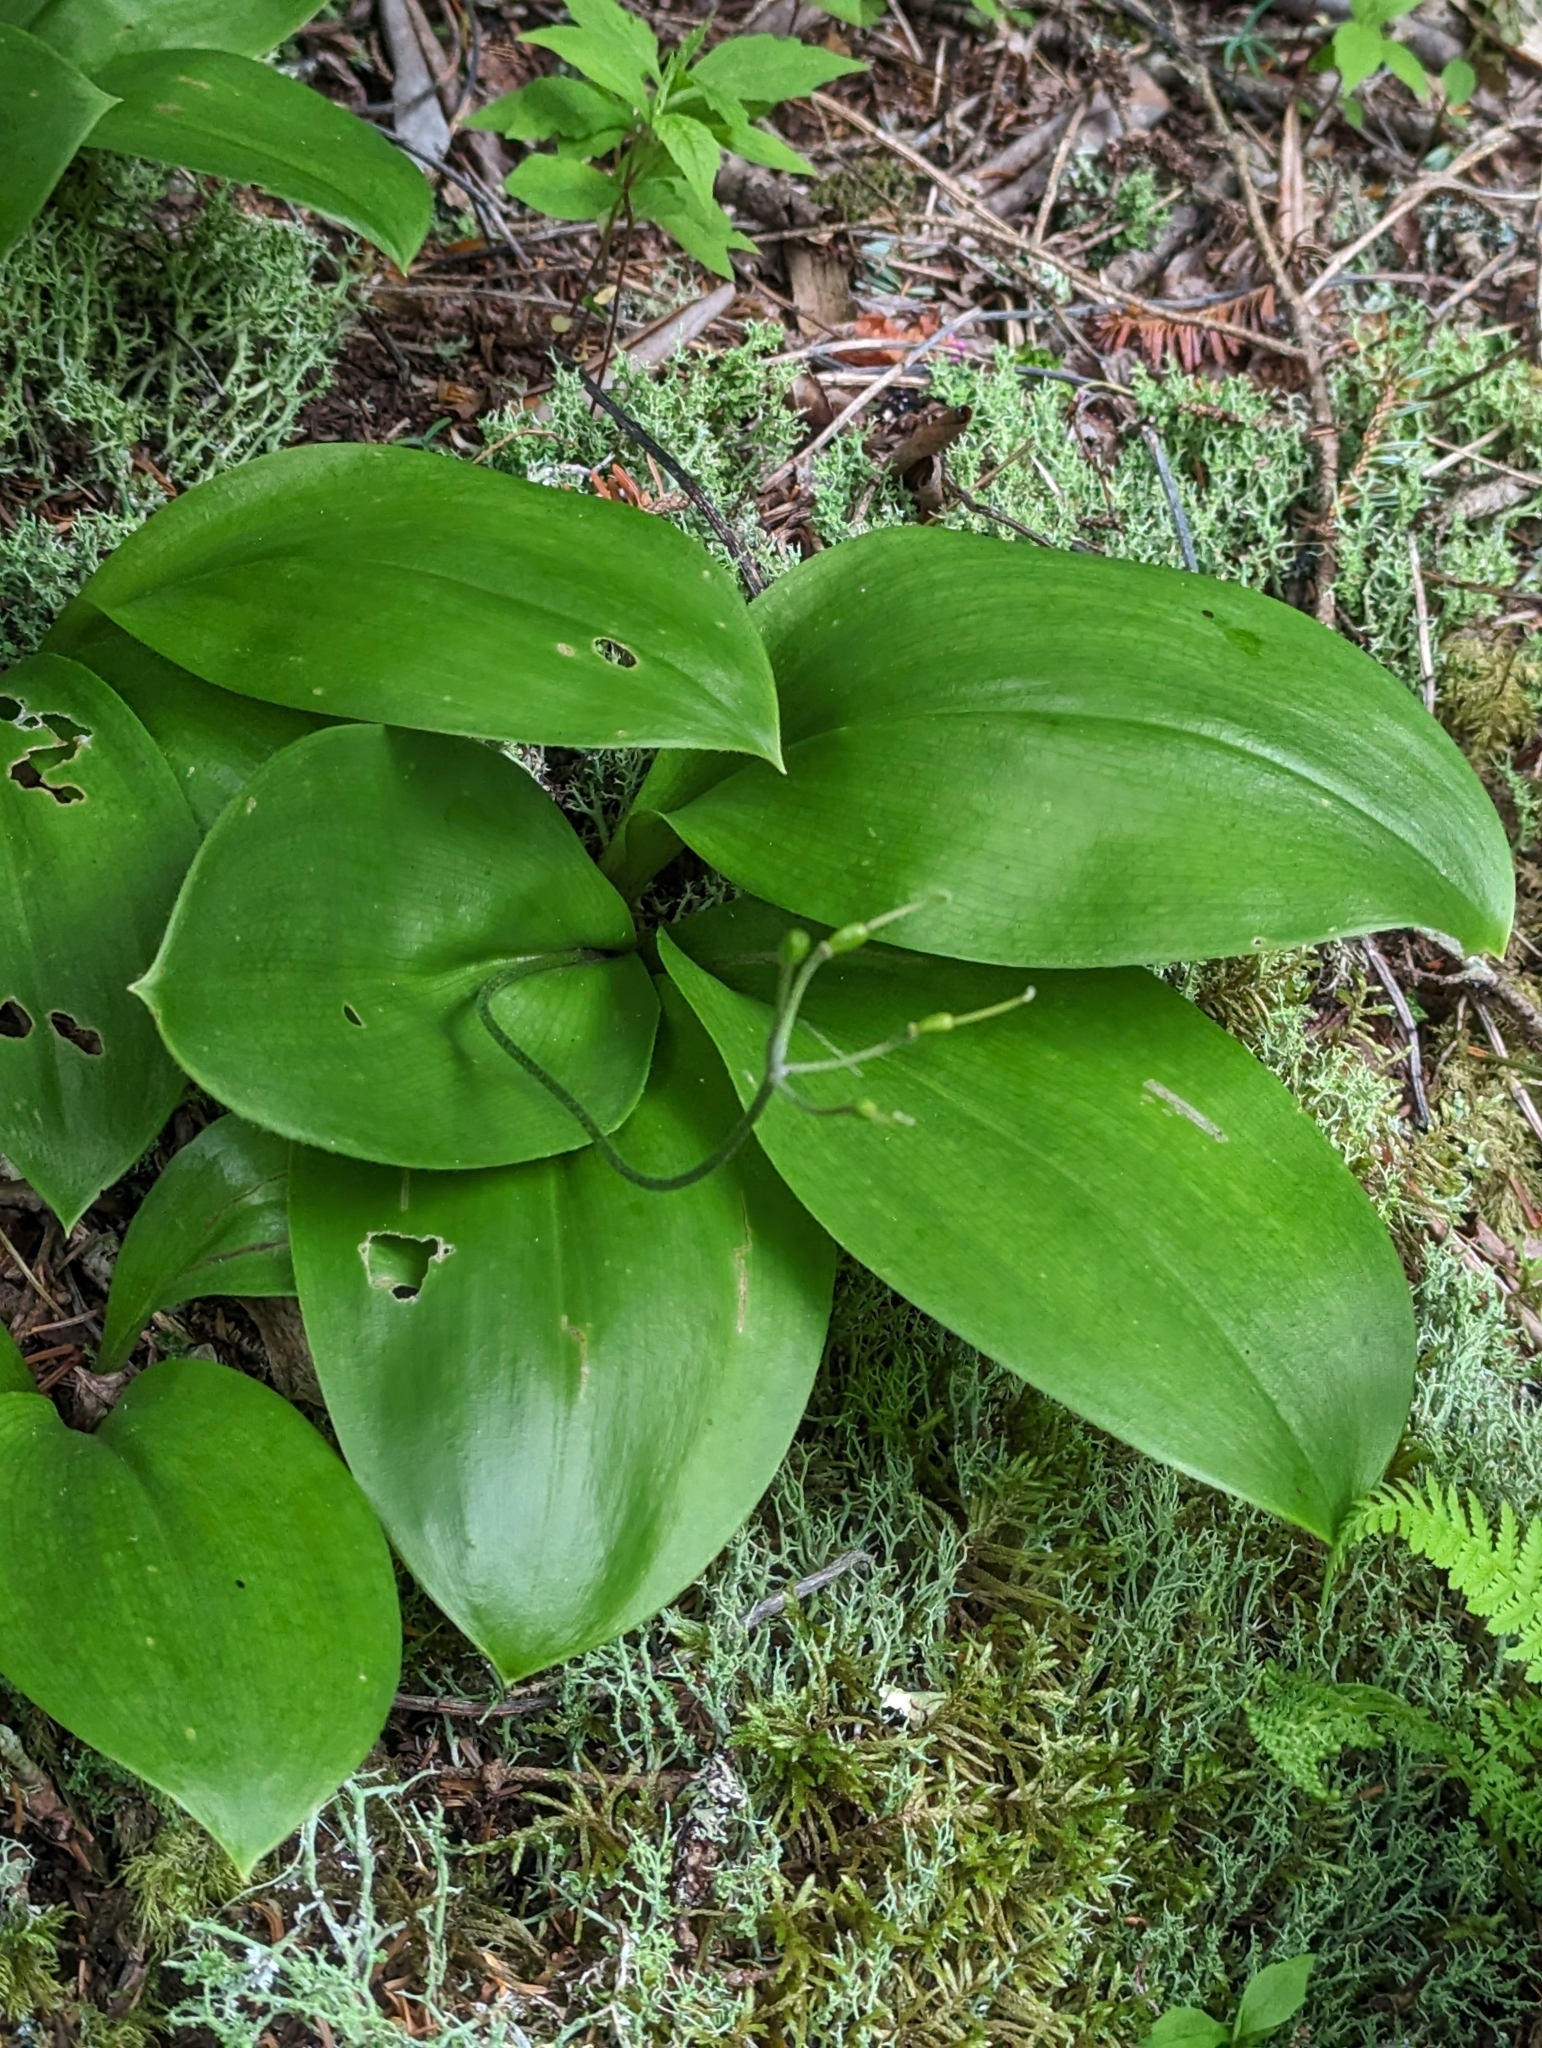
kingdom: Plantae
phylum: Tracheophyta
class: Liliopsida
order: Liliales
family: Liliaceae
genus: Clintonia
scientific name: Clintonia borealis
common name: Yellow clintonia
